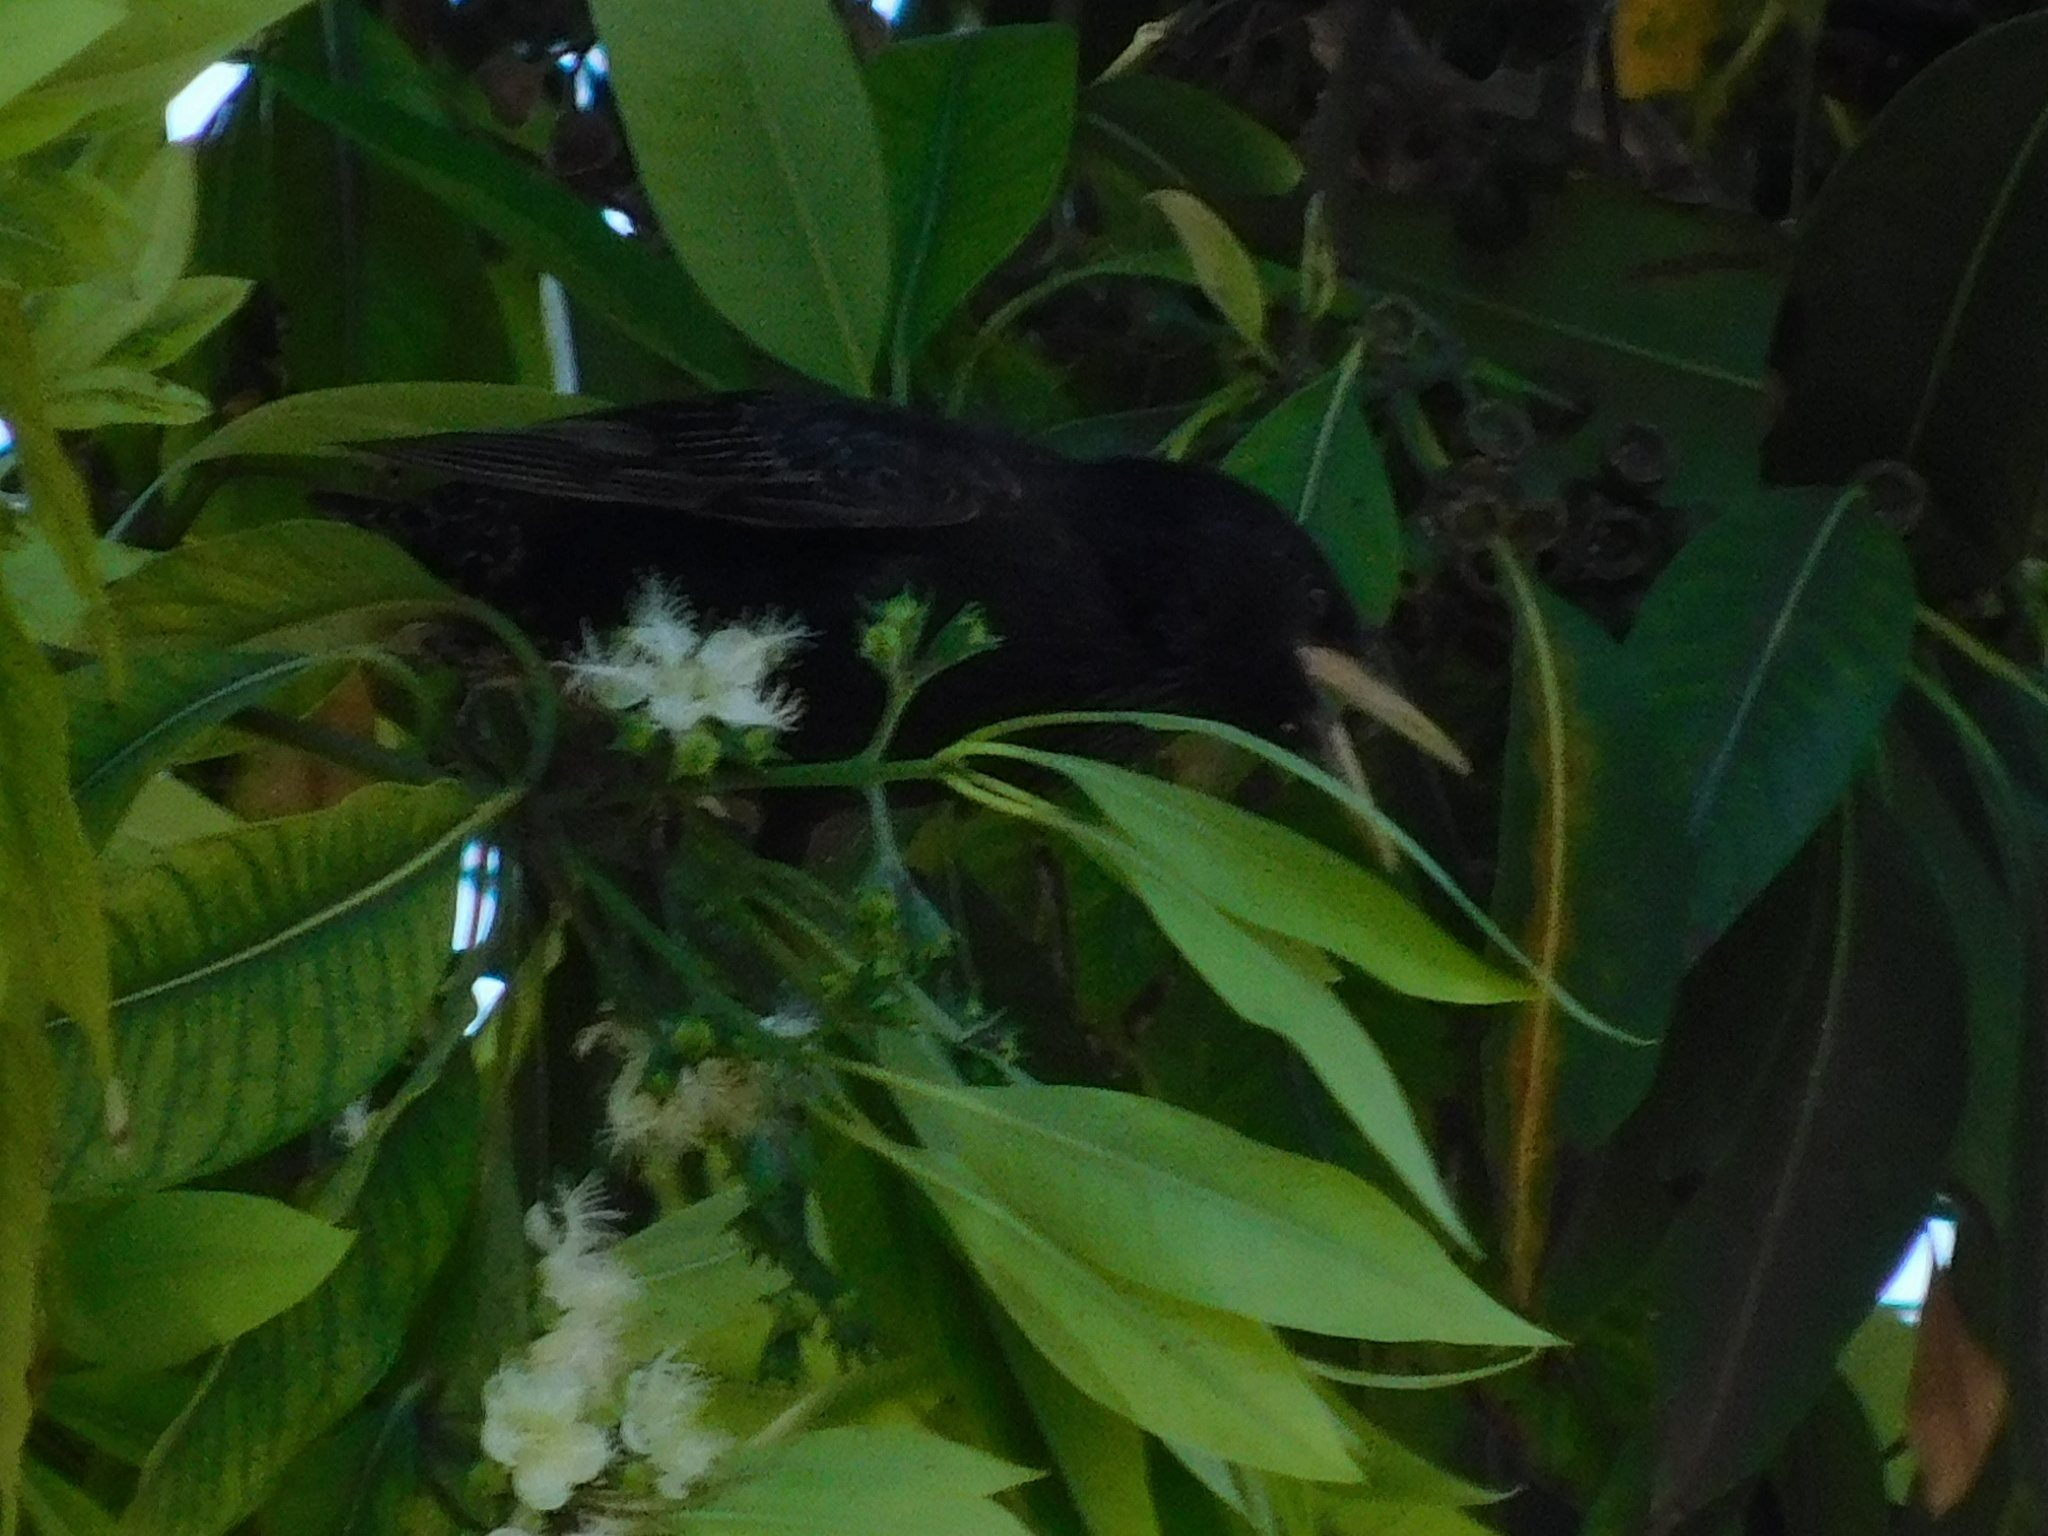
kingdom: Animalia
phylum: Chordata
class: Aves
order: Passeriformes
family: Sturnidae
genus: Sturnus
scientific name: Sturnus vulgaris
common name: Common starling
